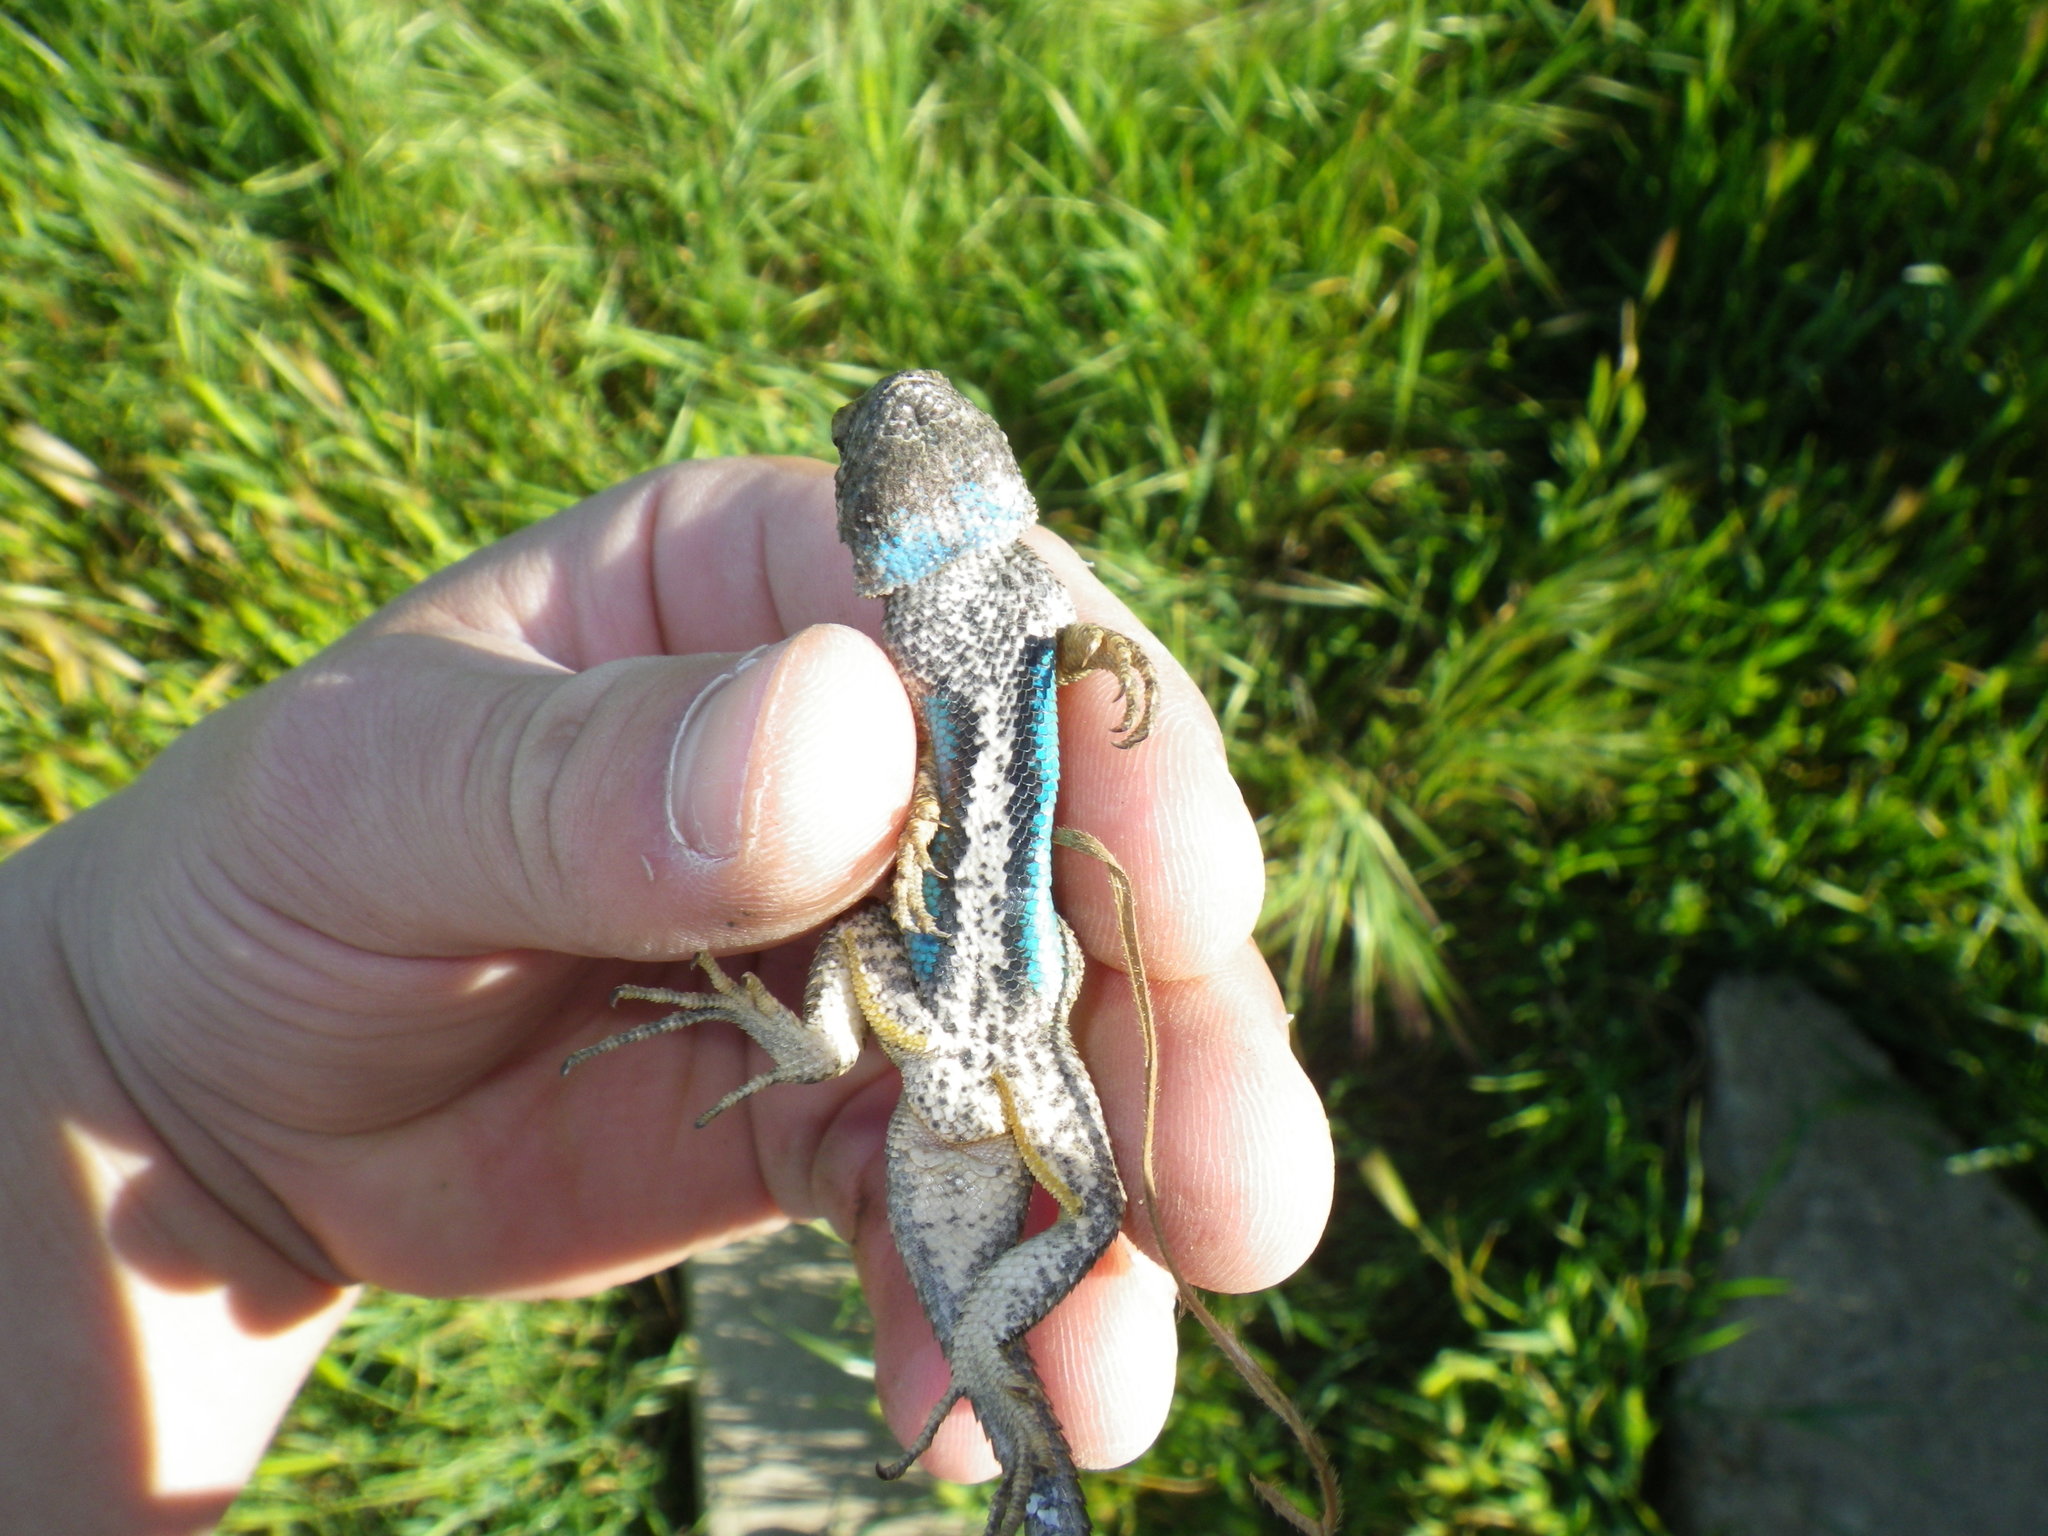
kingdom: Animalia
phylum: Chordata
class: Squamata
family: Phrynosomatidae
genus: Sceloporus
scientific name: Sceloporus occidentalis
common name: Western fence lizard
